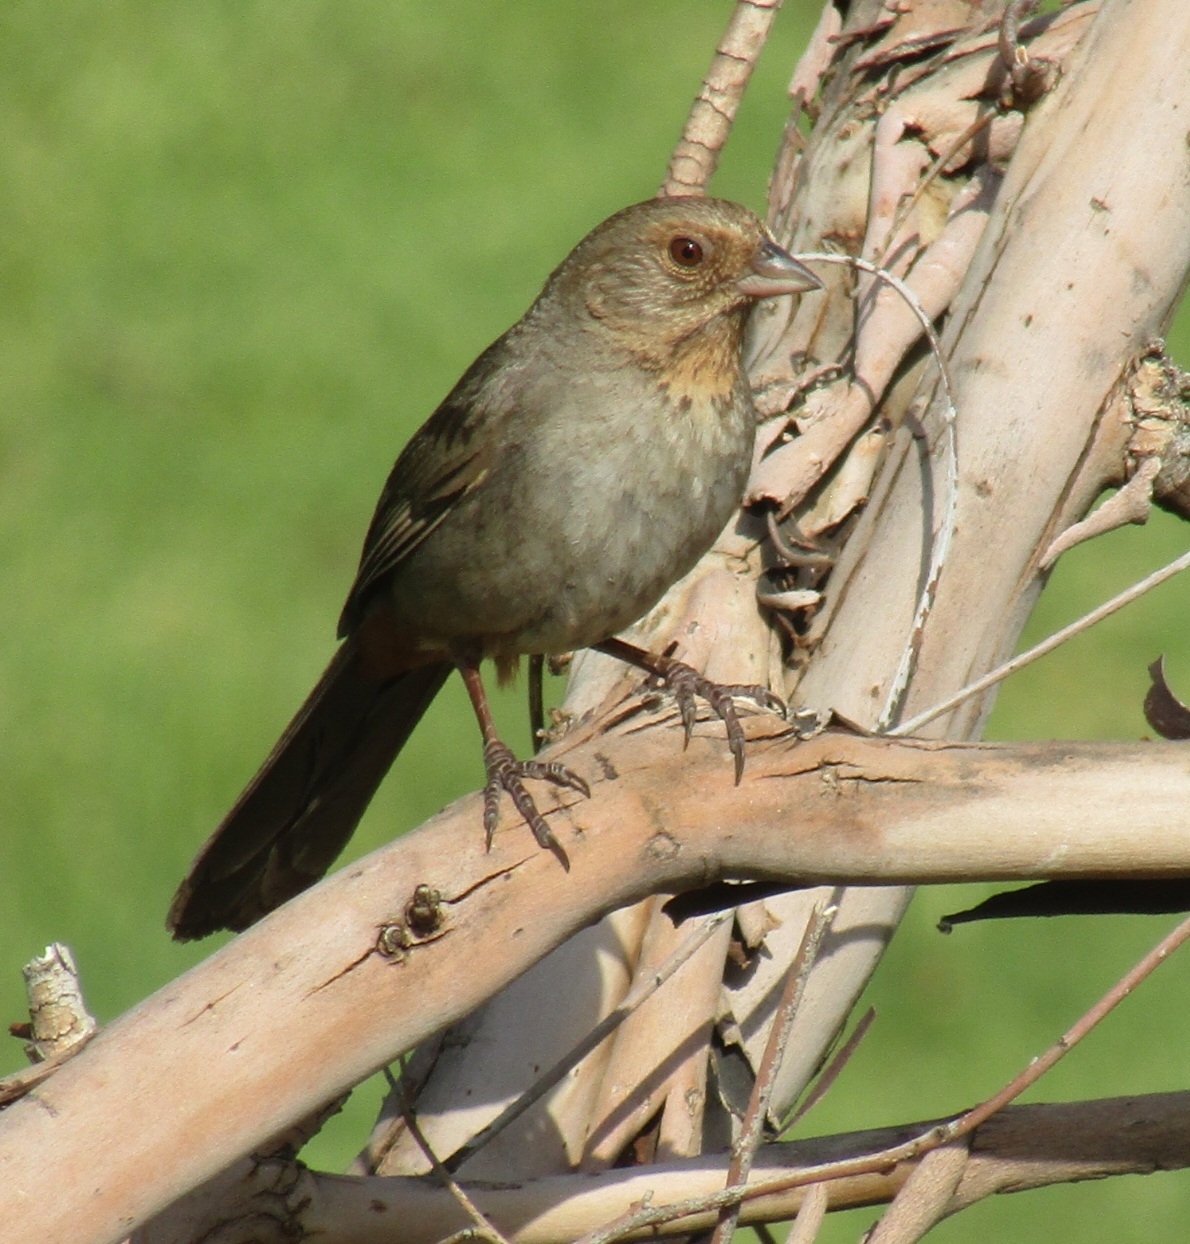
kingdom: Animalia
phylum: Chordata
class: Aves
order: Passeriformes
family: Passerellidae
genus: Melozone
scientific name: Melozone crissalis
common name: California towhee
